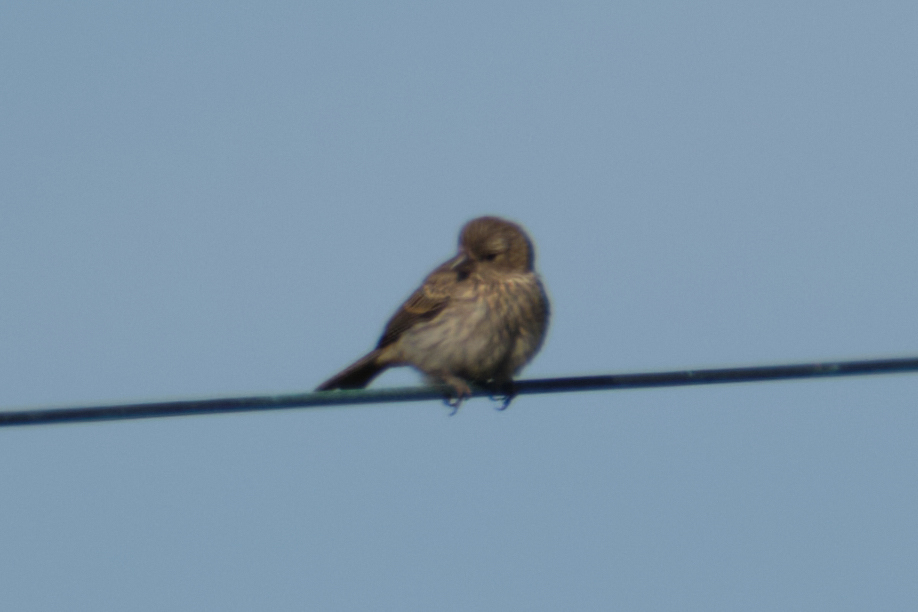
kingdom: Animalia
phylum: Chordata
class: Aves
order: Passeriformes
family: Fringillidae
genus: Haemorhous
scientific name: Haemorhous mexicanus
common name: House finch
